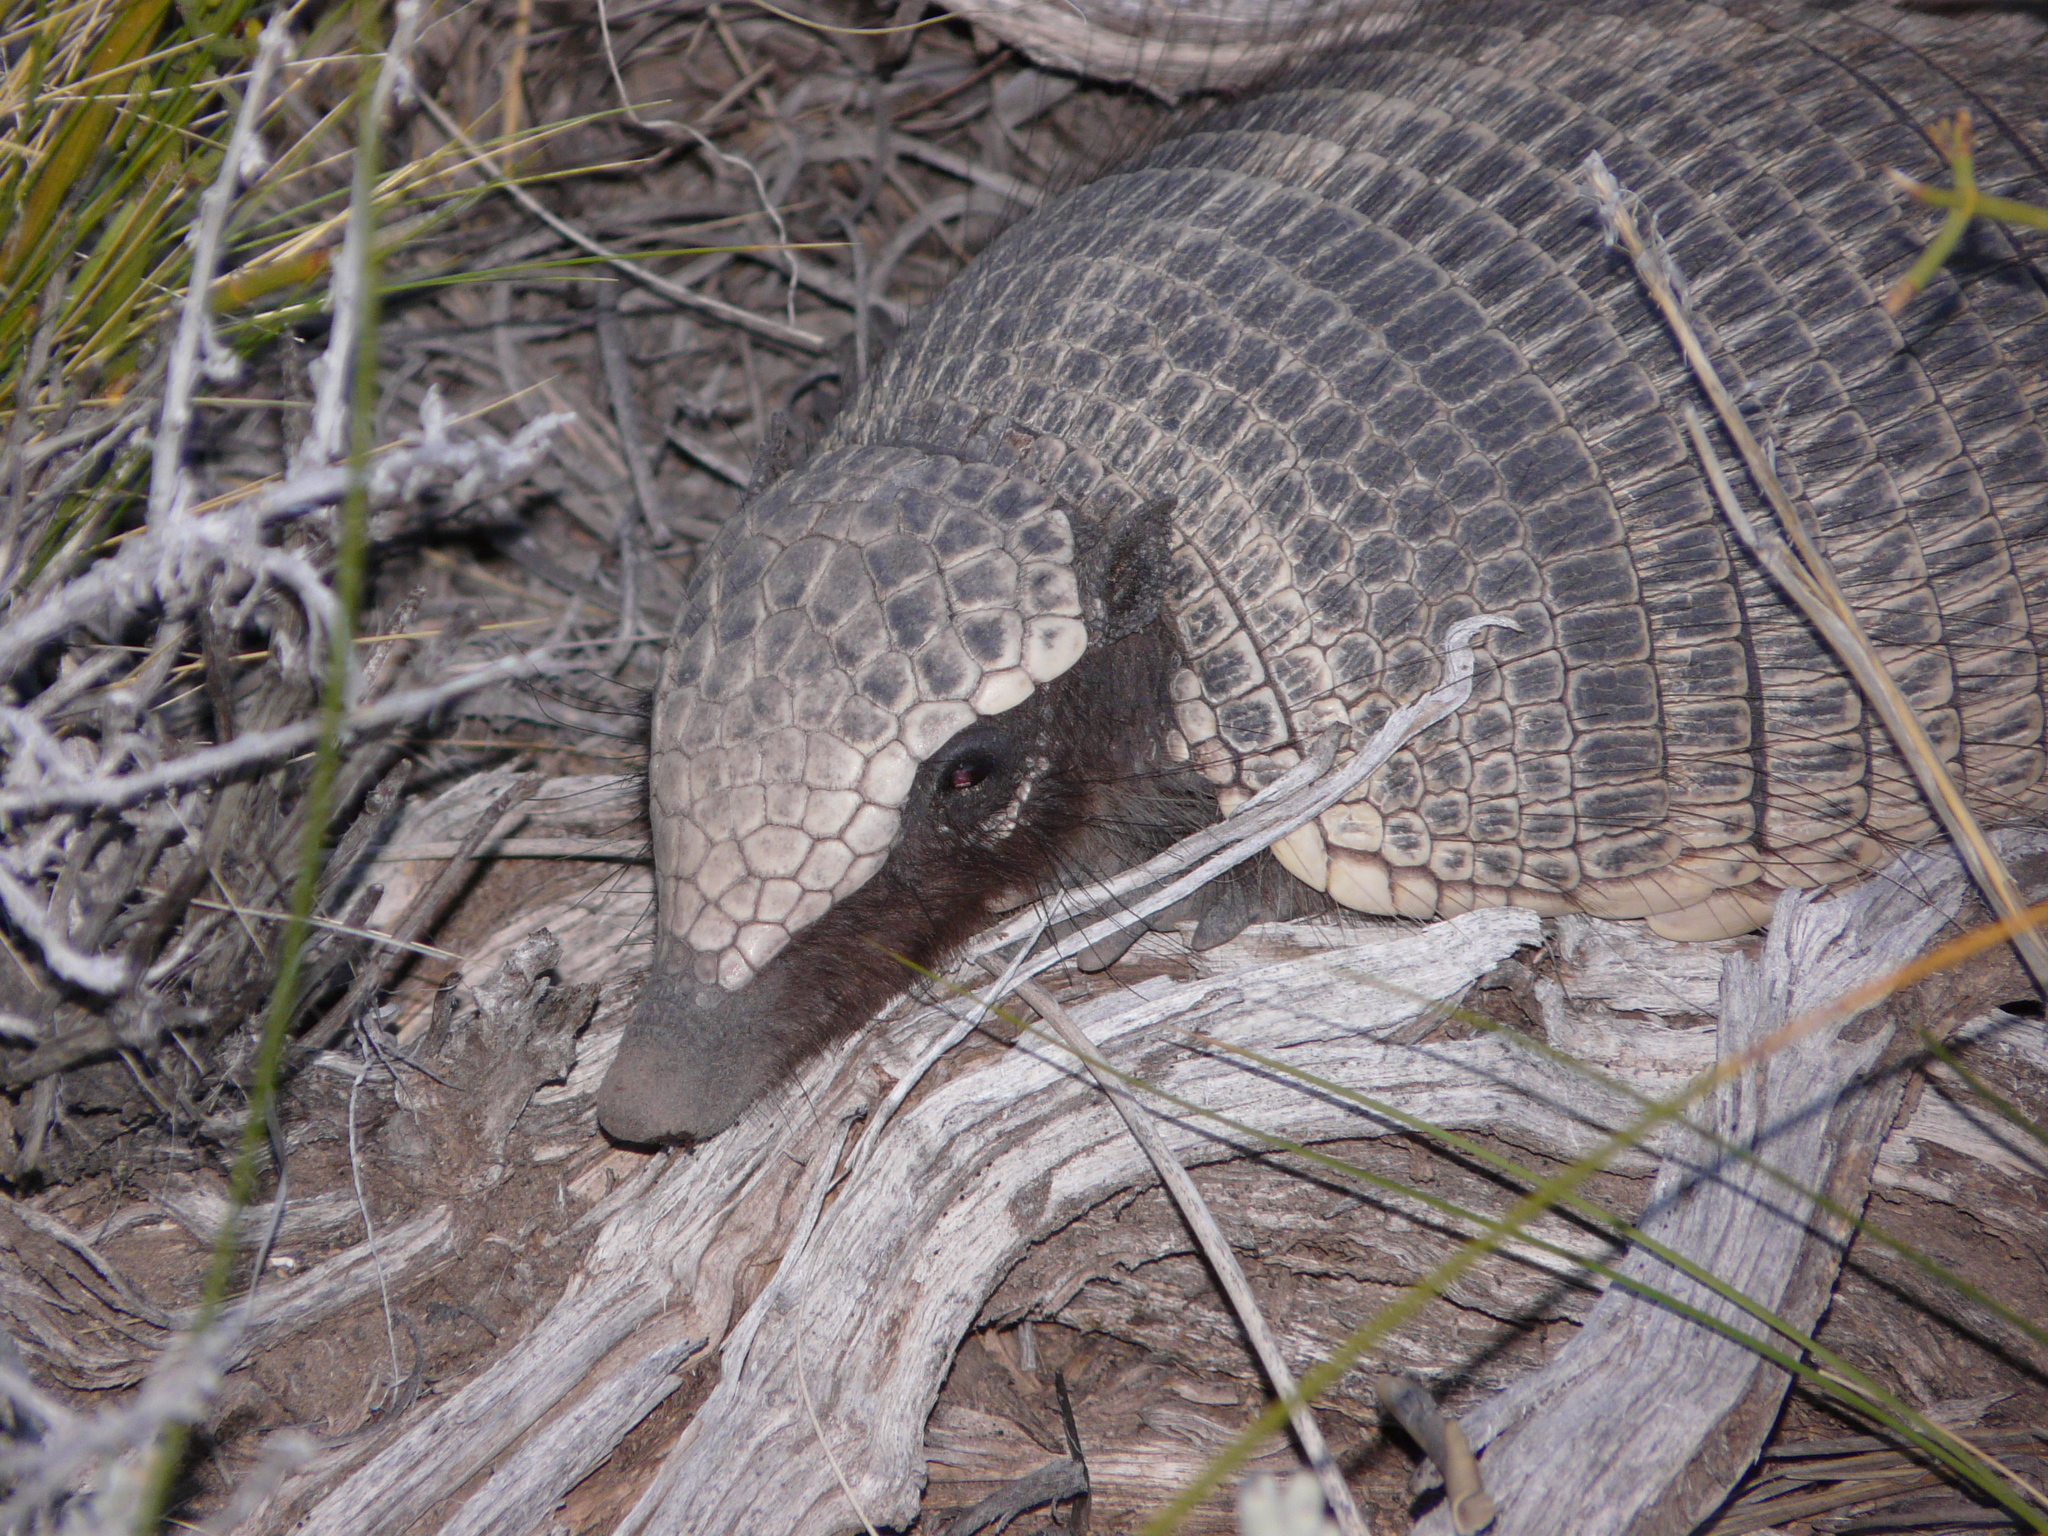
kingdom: Animalia
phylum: Chordata
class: Mammalia
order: Cingulata
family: Dasypodidae
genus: Zaedyus
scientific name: Zaedyus pichiy
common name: Pichi
